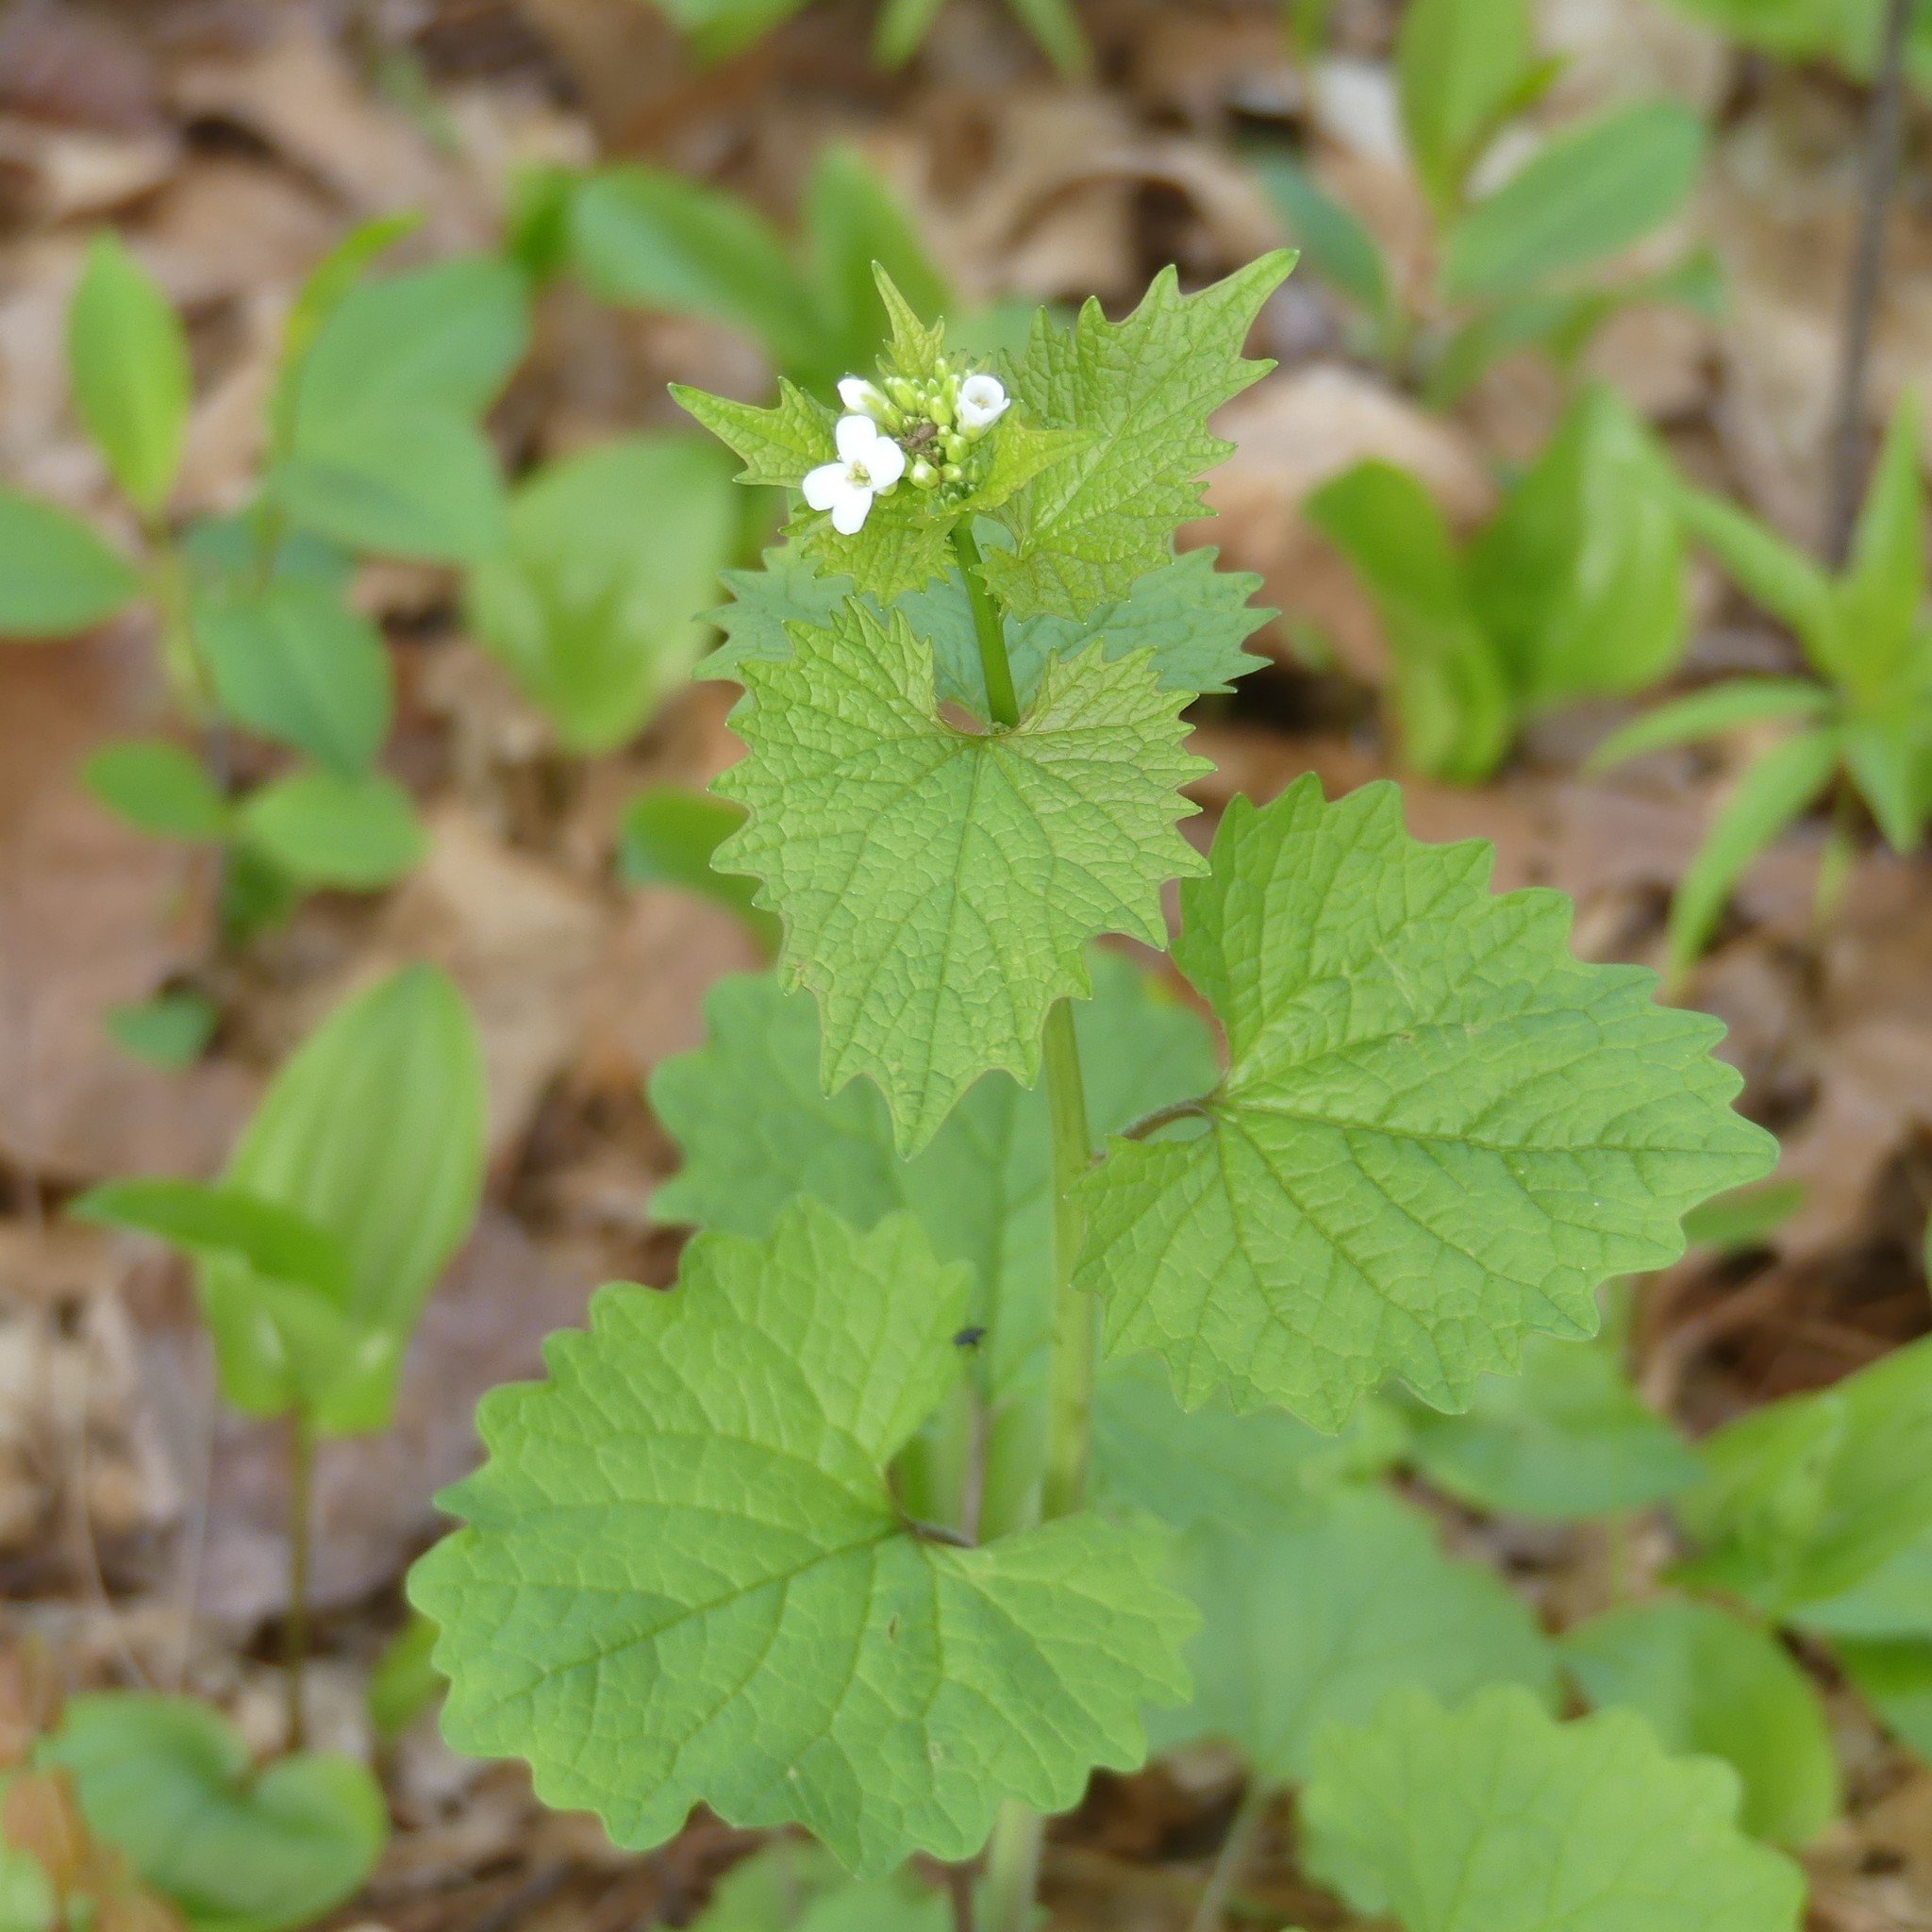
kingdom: Plantae
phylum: Tracheophyta
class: Magnoliopsida
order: Brassicales
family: Brassicaceae
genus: Alliaria
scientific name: Alliaria petiolata
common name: Garlic mustard
